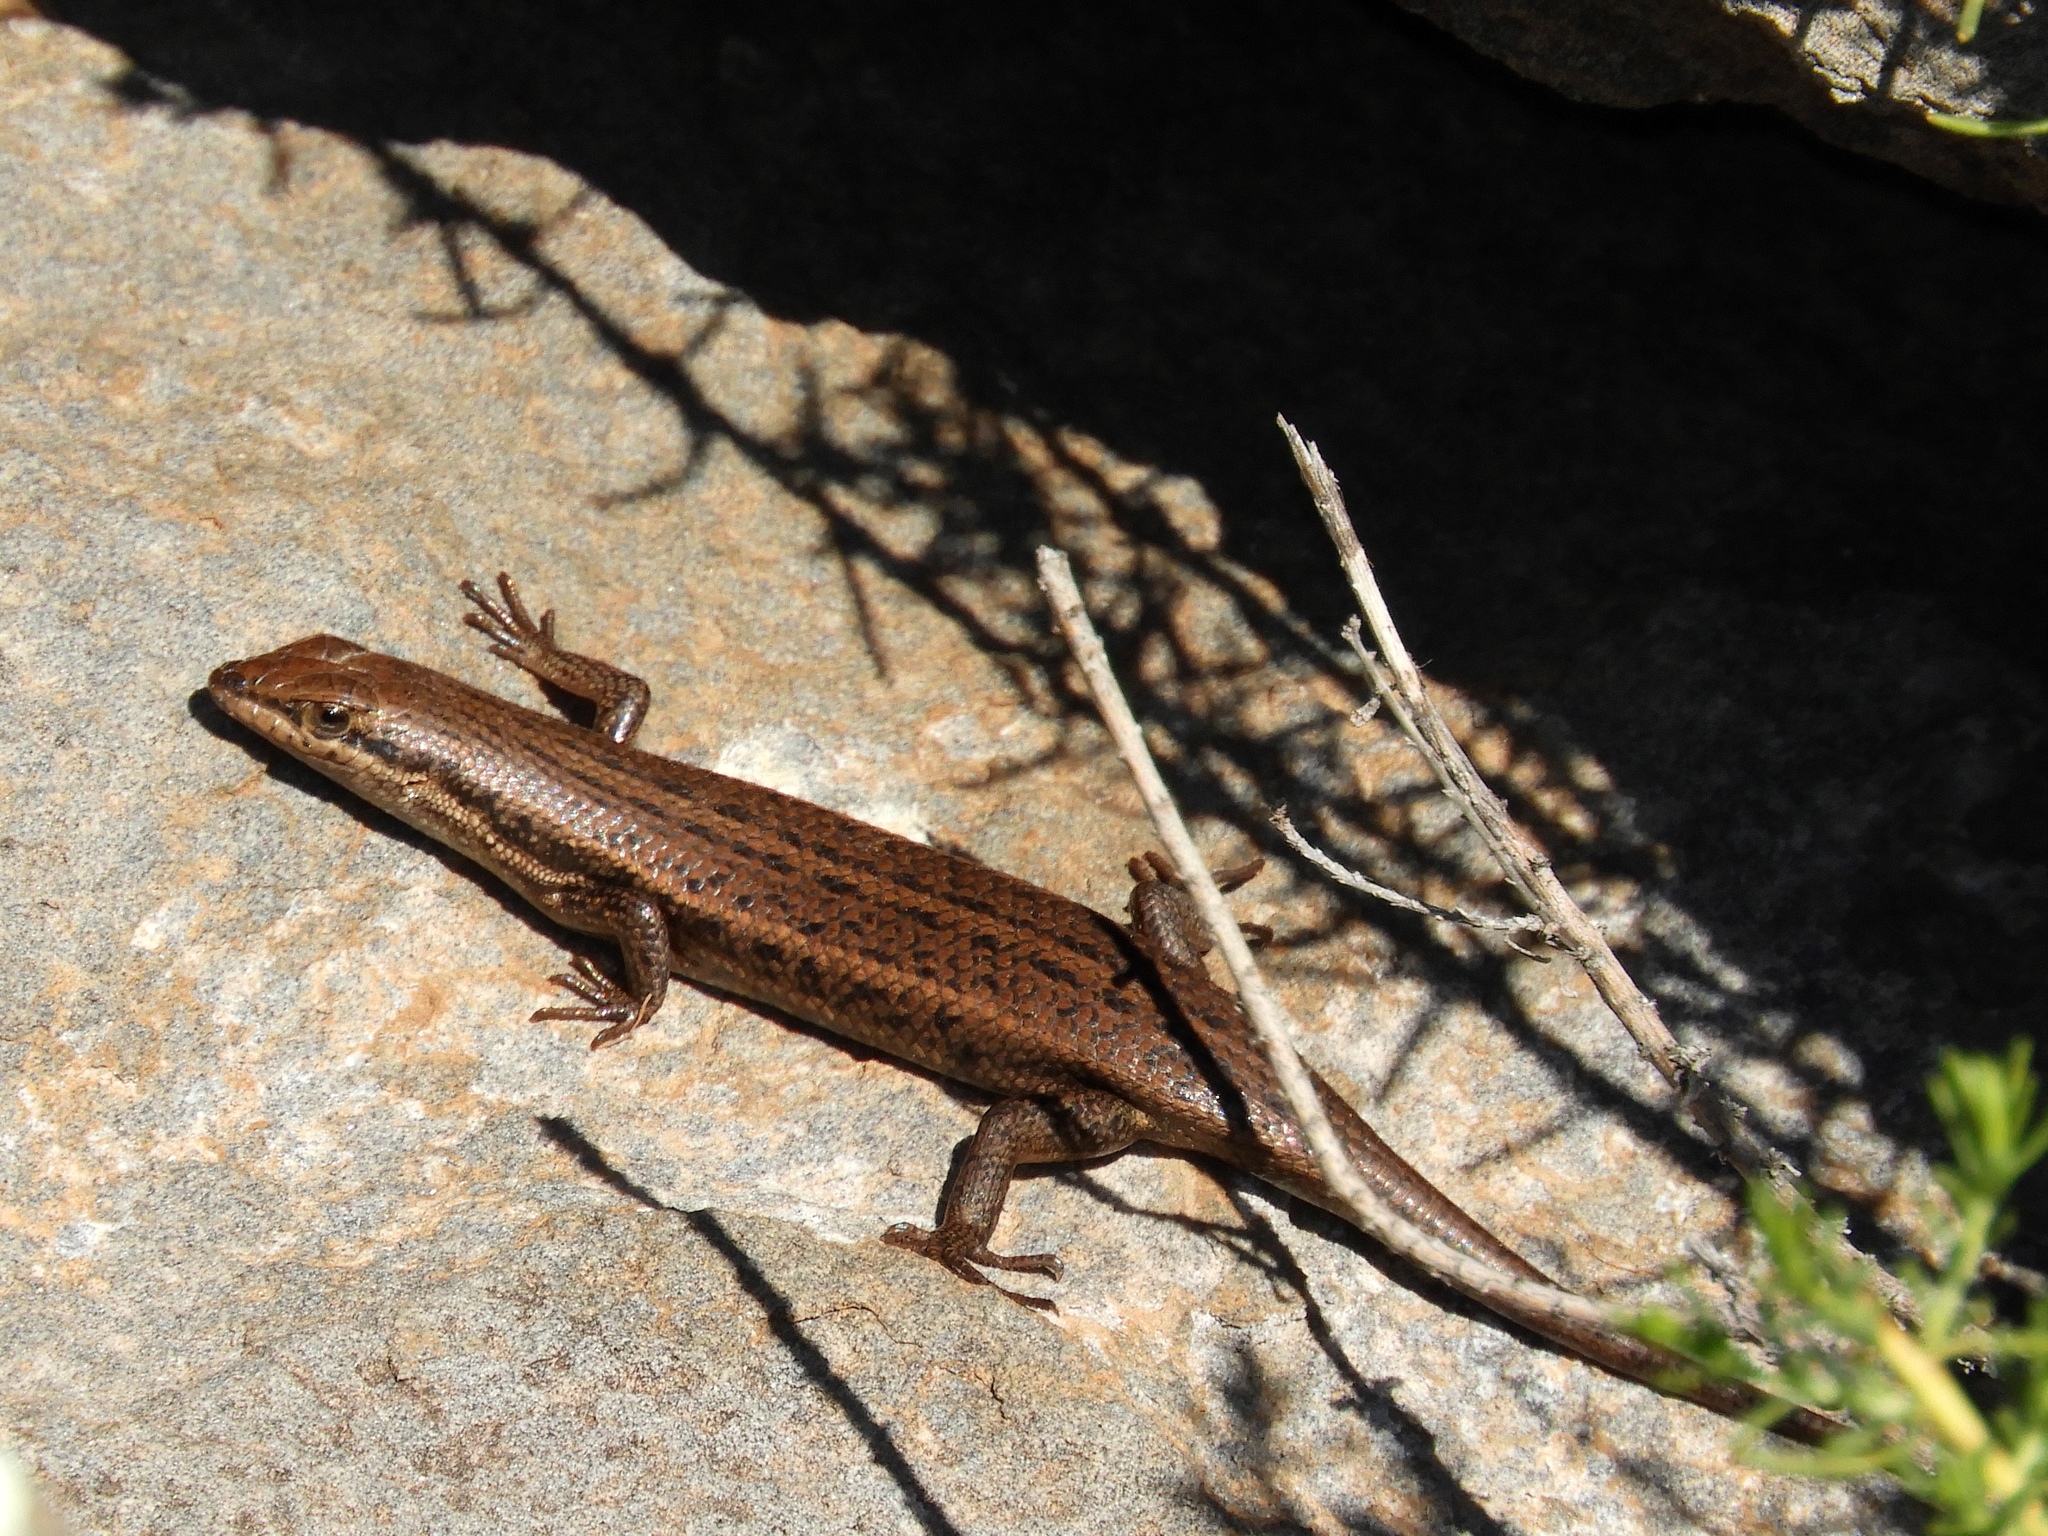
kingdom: Animalia
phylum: Chordata
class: Squamata
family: Scincidae
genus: Trachylepis
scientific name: Trachylepis variegata
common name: Variegated skink
